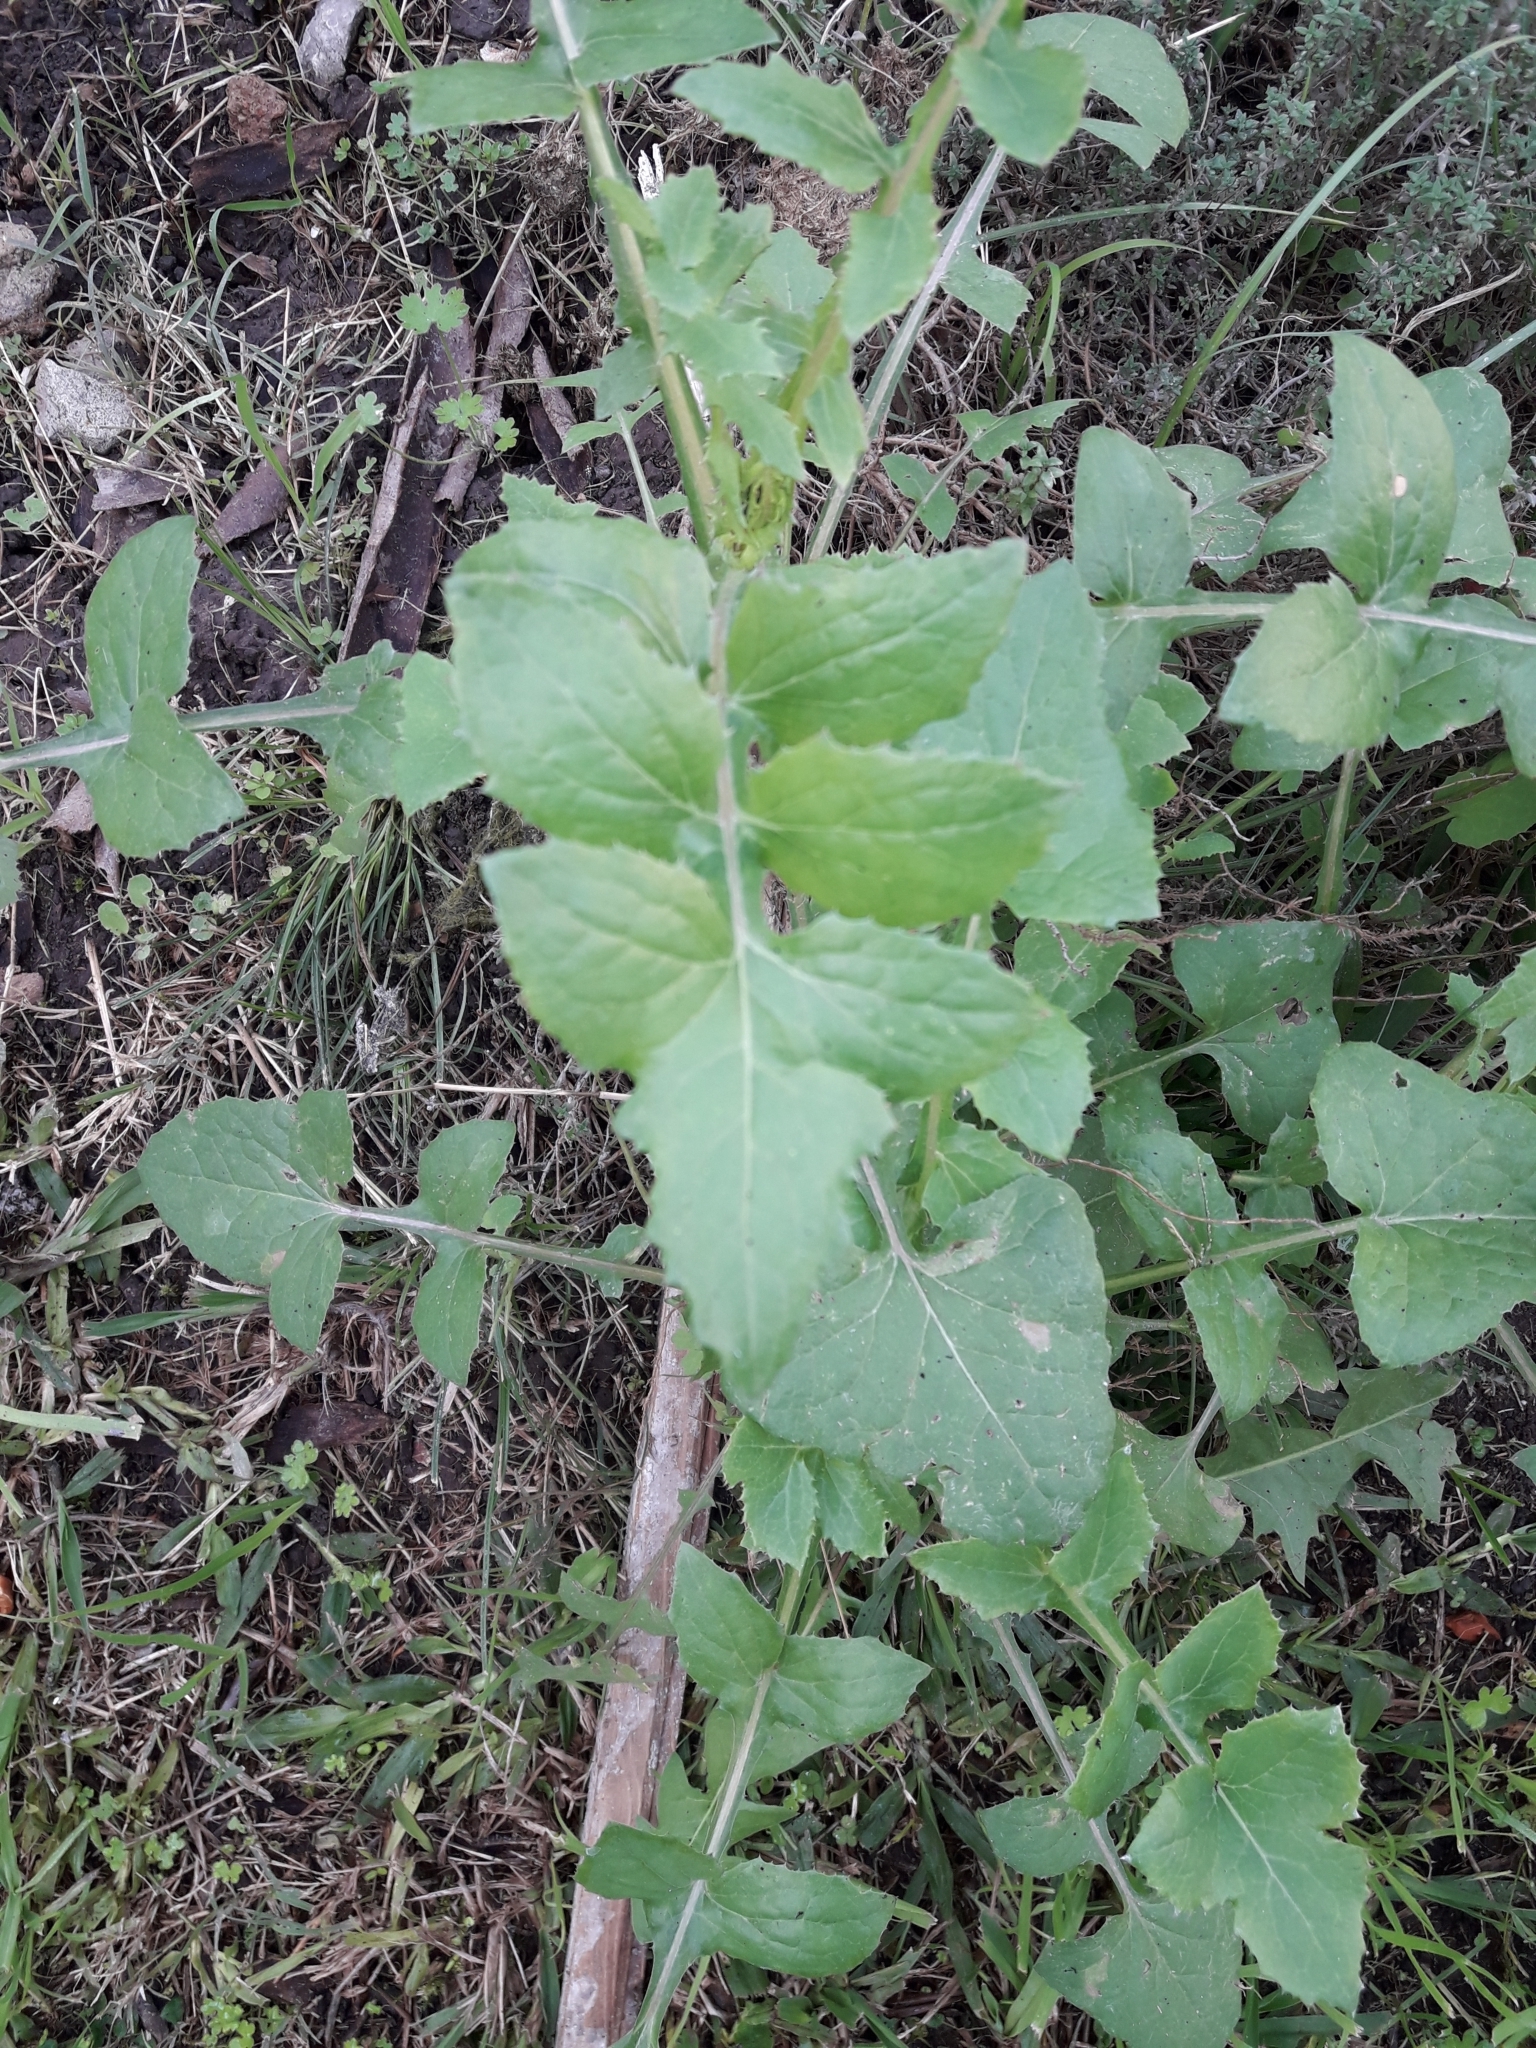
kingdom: Plantae
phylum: Tracheophyta
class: Magnoliopsida
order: Asterales
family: Asteraceae
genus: Sonchus
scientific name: Sonchus oleraceus
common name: Common sowthistle
